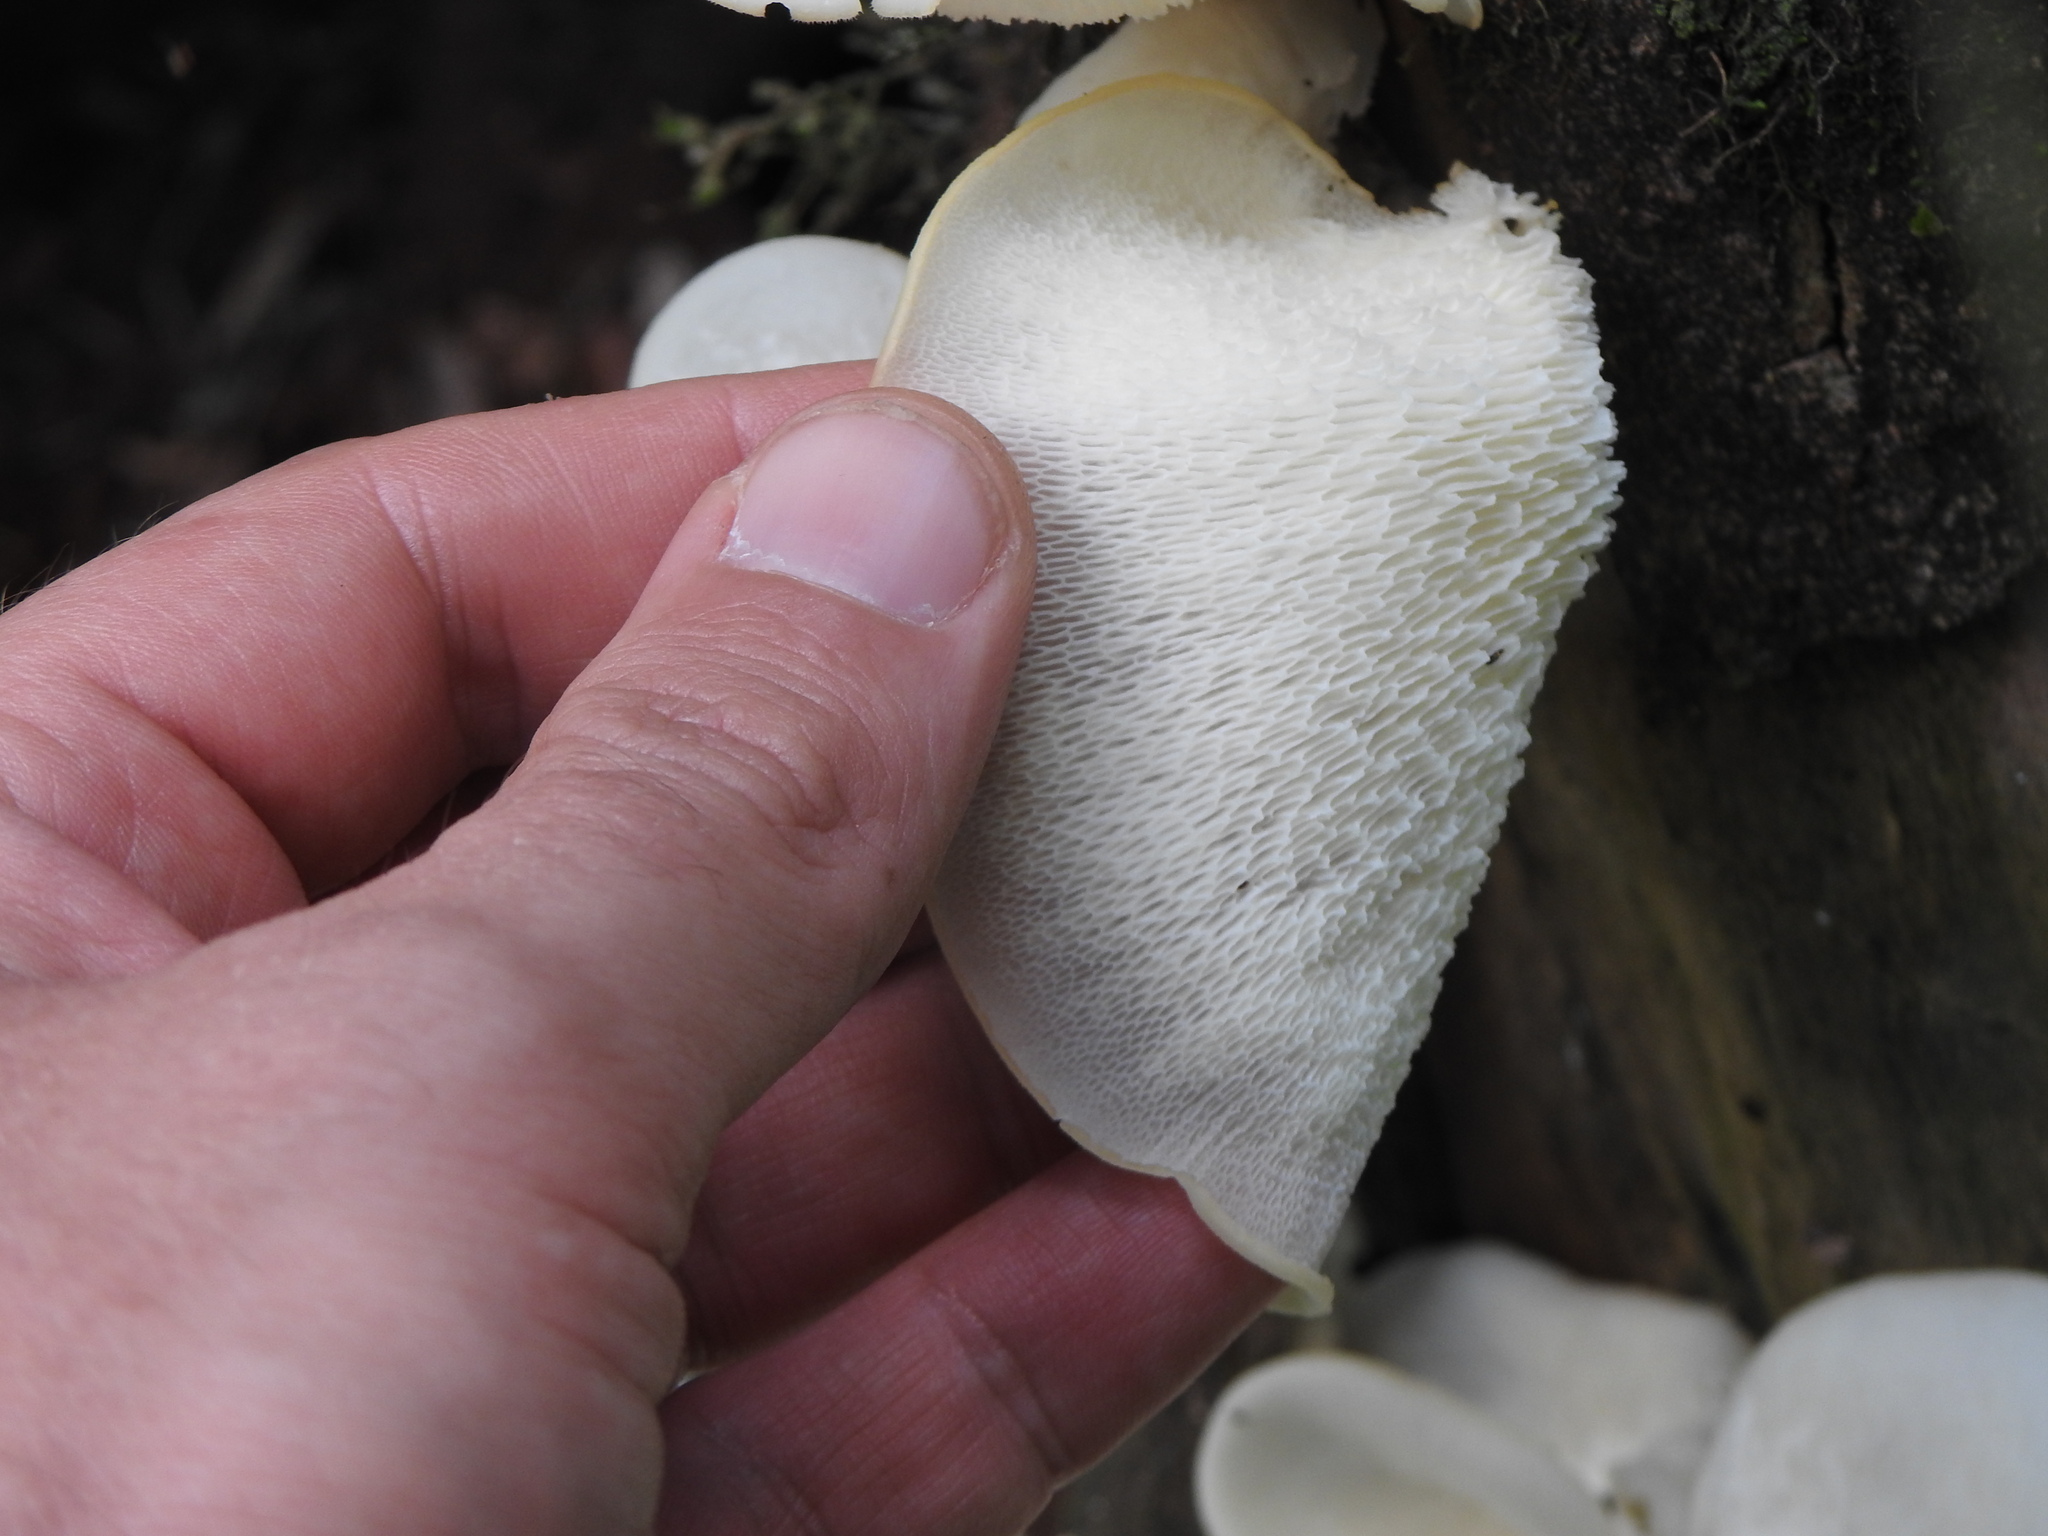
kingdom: Fungi
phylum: Basidiomycota
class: Agaricomycetes
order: Polyporales
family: Polyporaceae
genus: Favolus
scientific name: Favolus tenuiculus
